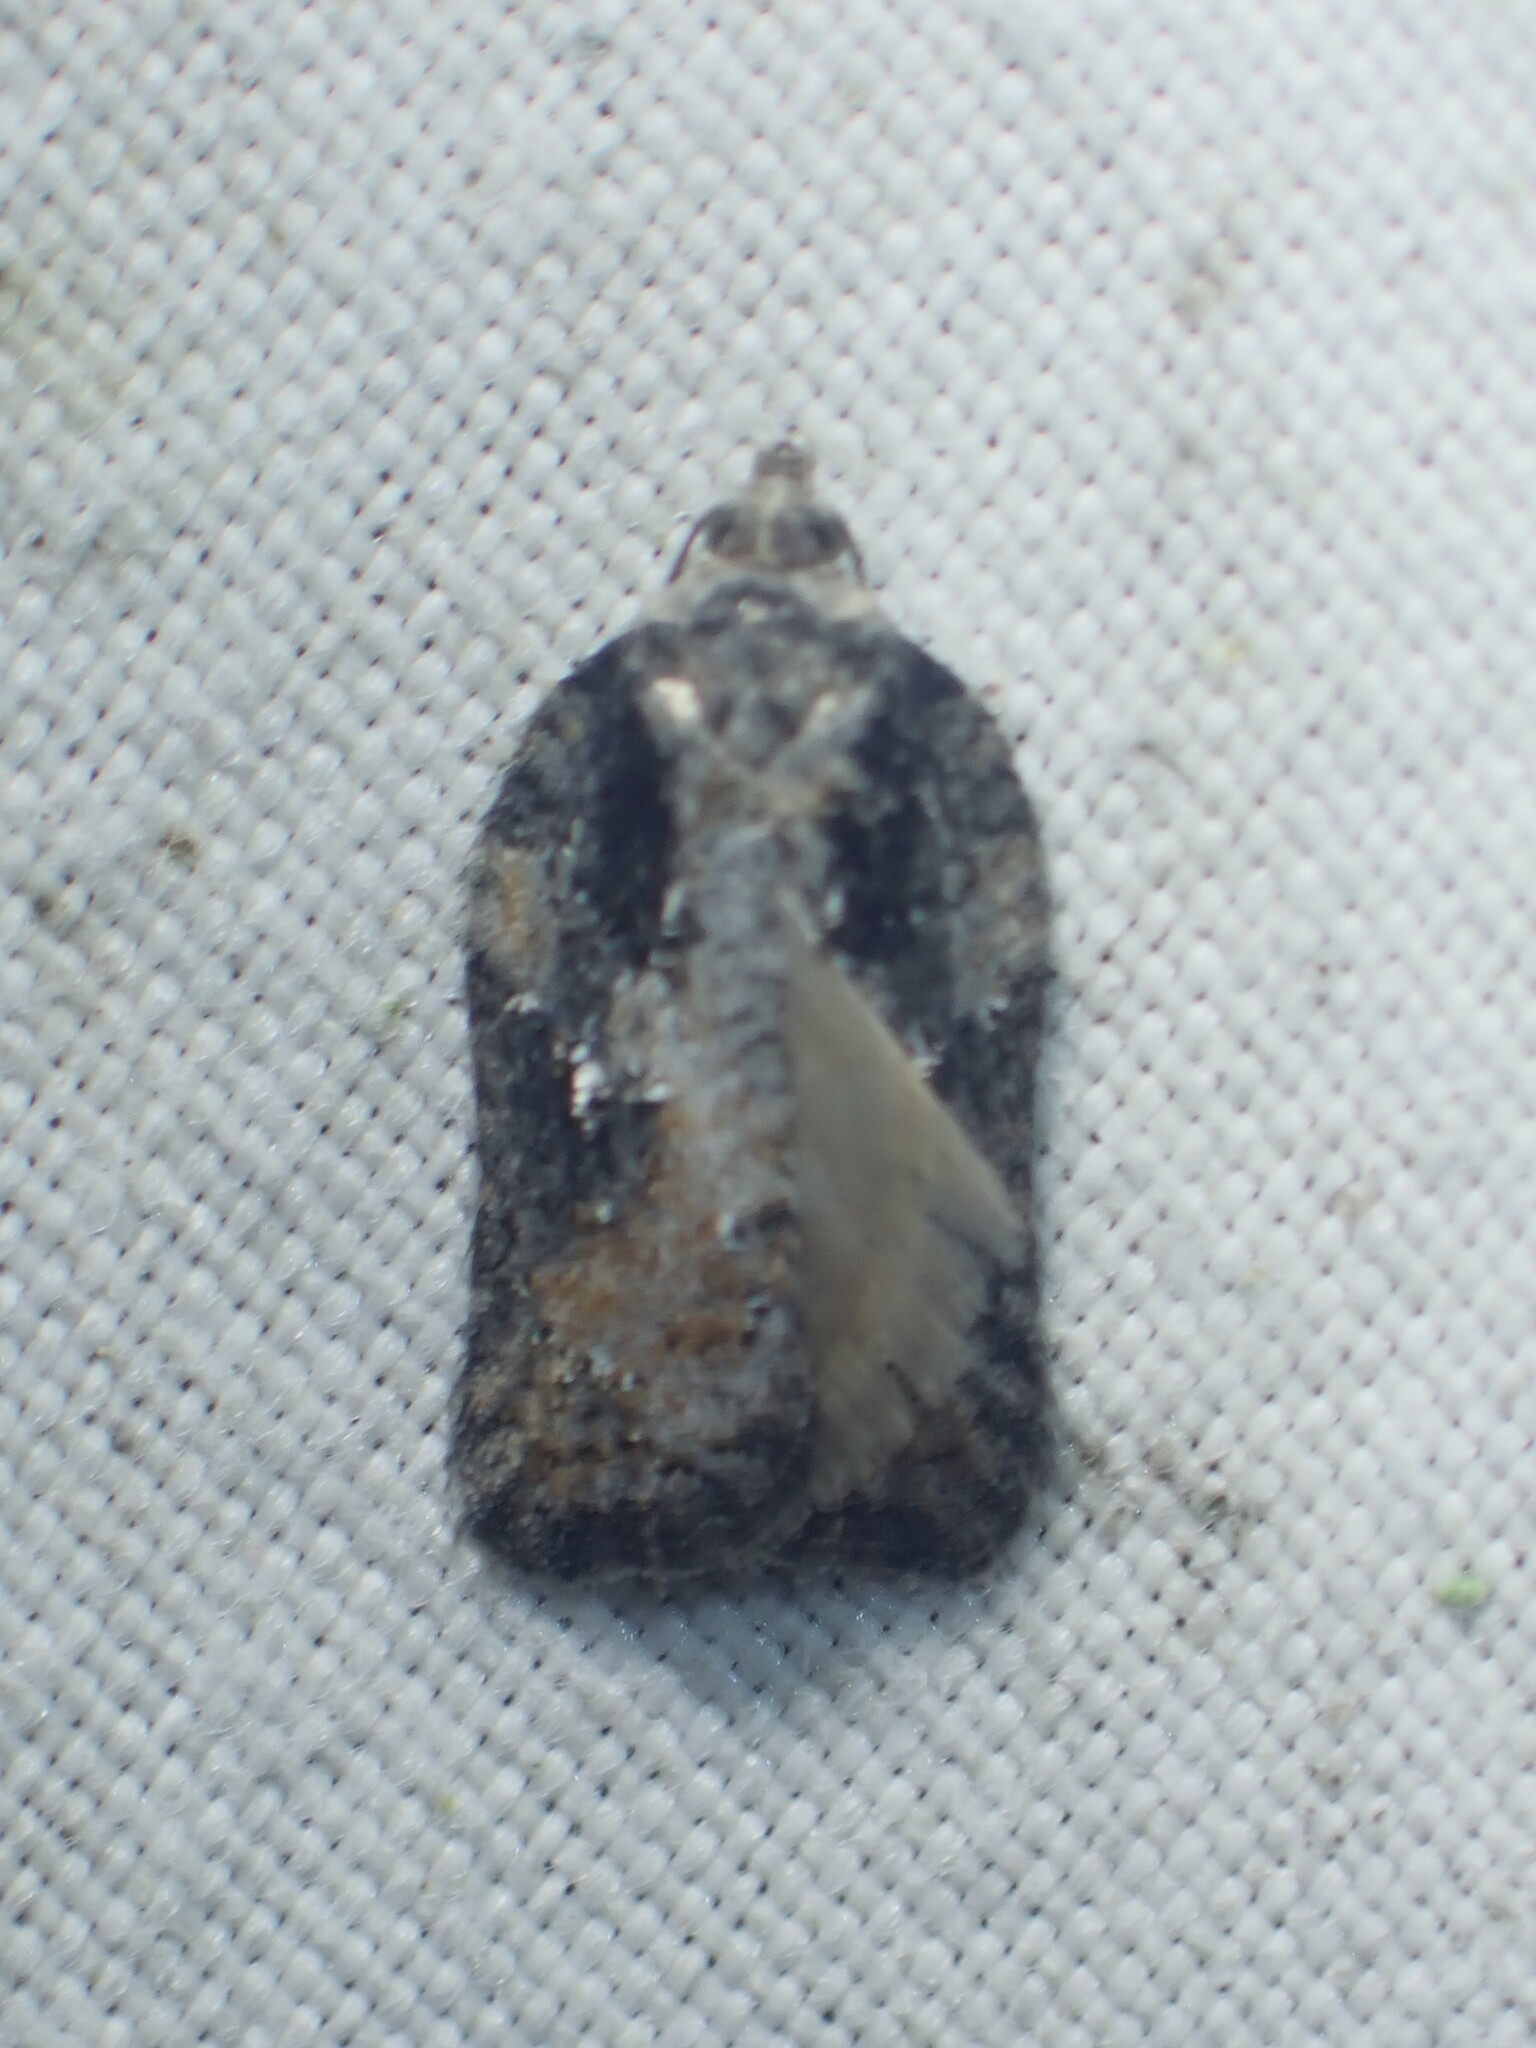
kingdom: Animalia
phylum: Arthropoda
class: Insecta
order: Lepidoptera
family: Tortricidae
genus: Acleris
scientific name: Acleris chalybeana
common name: Lesser maple leafroller
